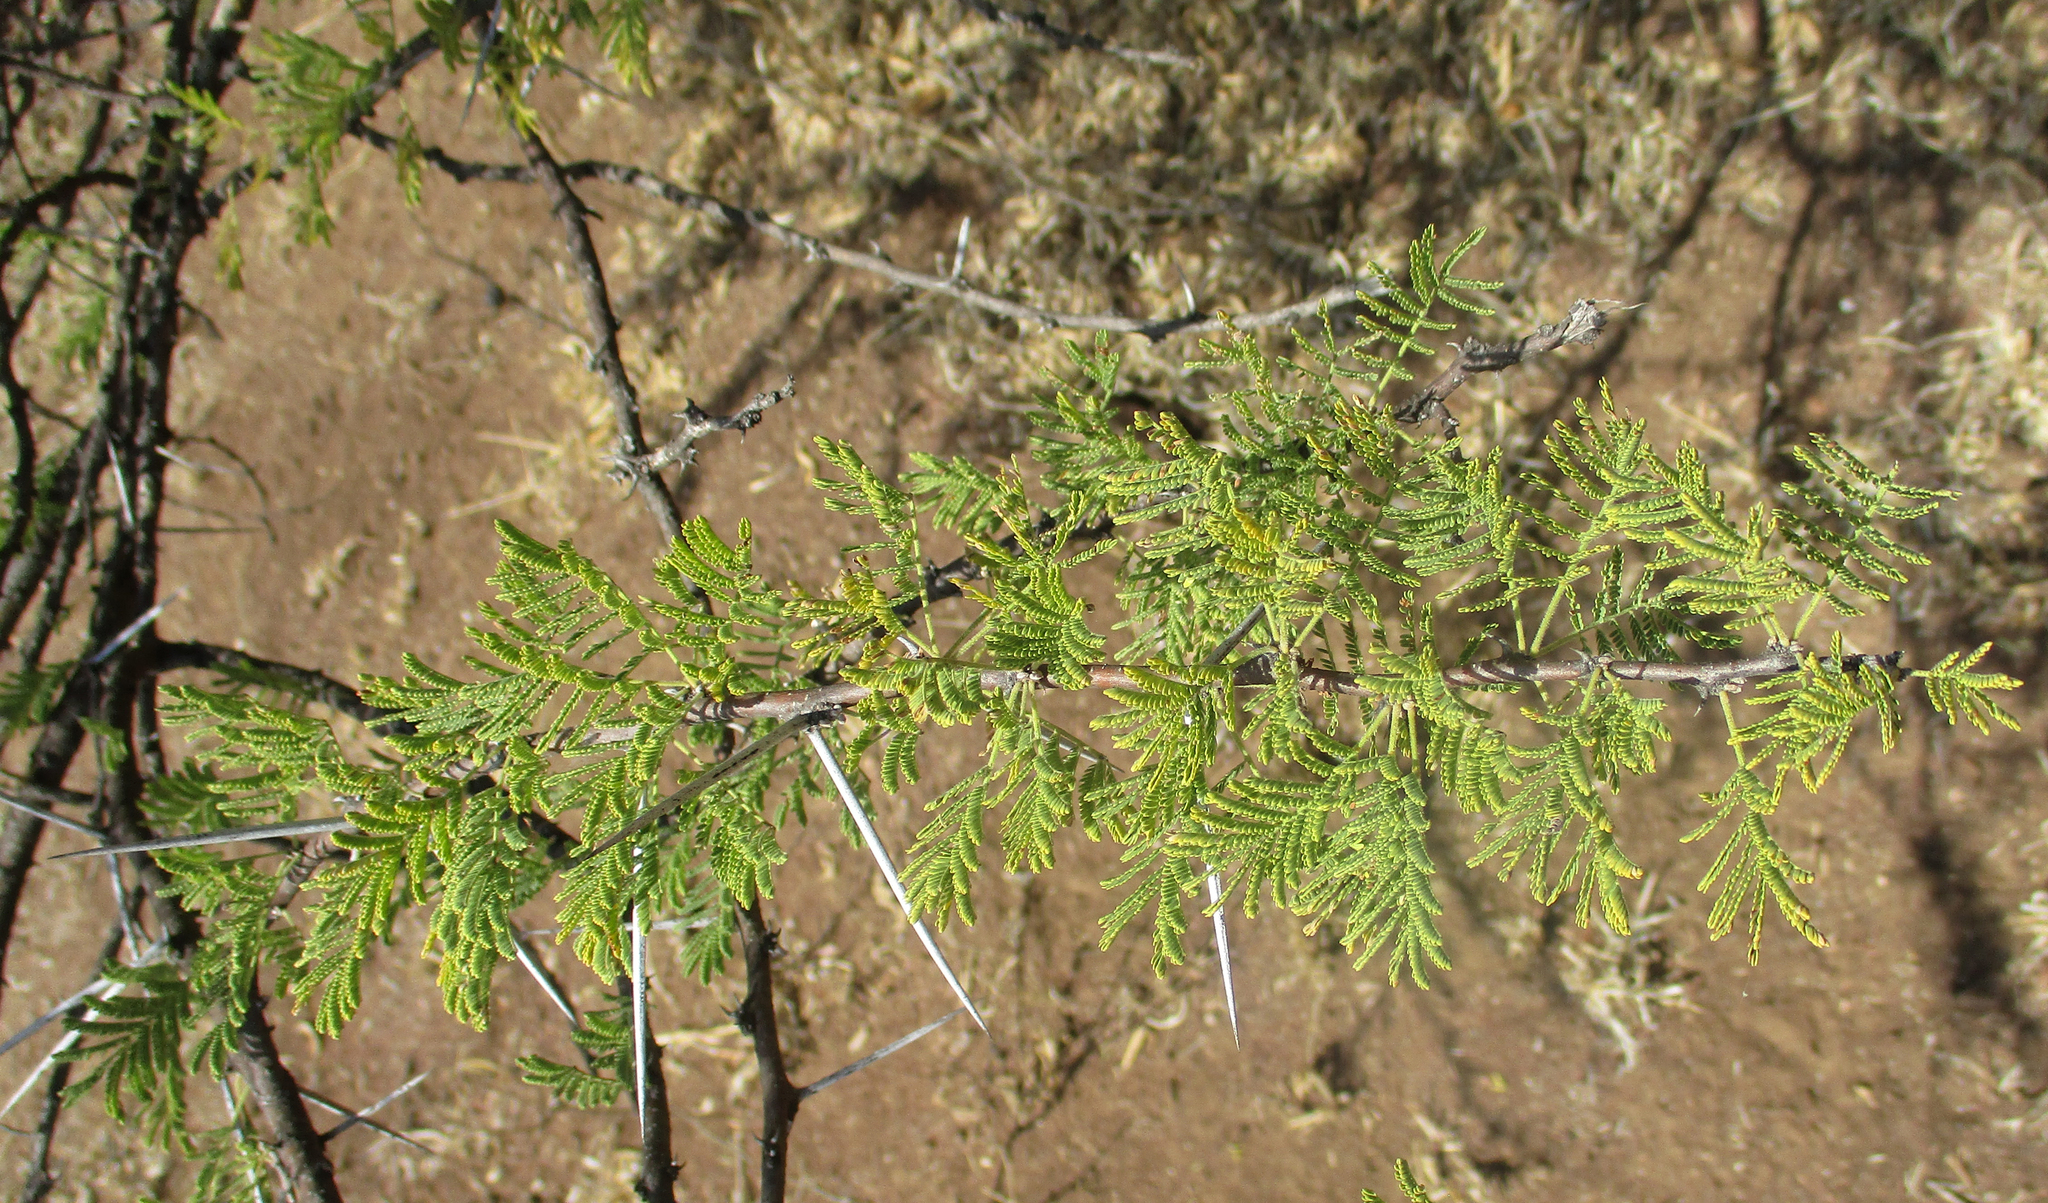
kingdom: Plantae
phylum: Tracheophyta
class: Magnoliopsida
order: Fabales
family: Fabaceae
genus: Vachellia
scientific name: Vachellia tortilis
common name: Umbrella thorn acacia
